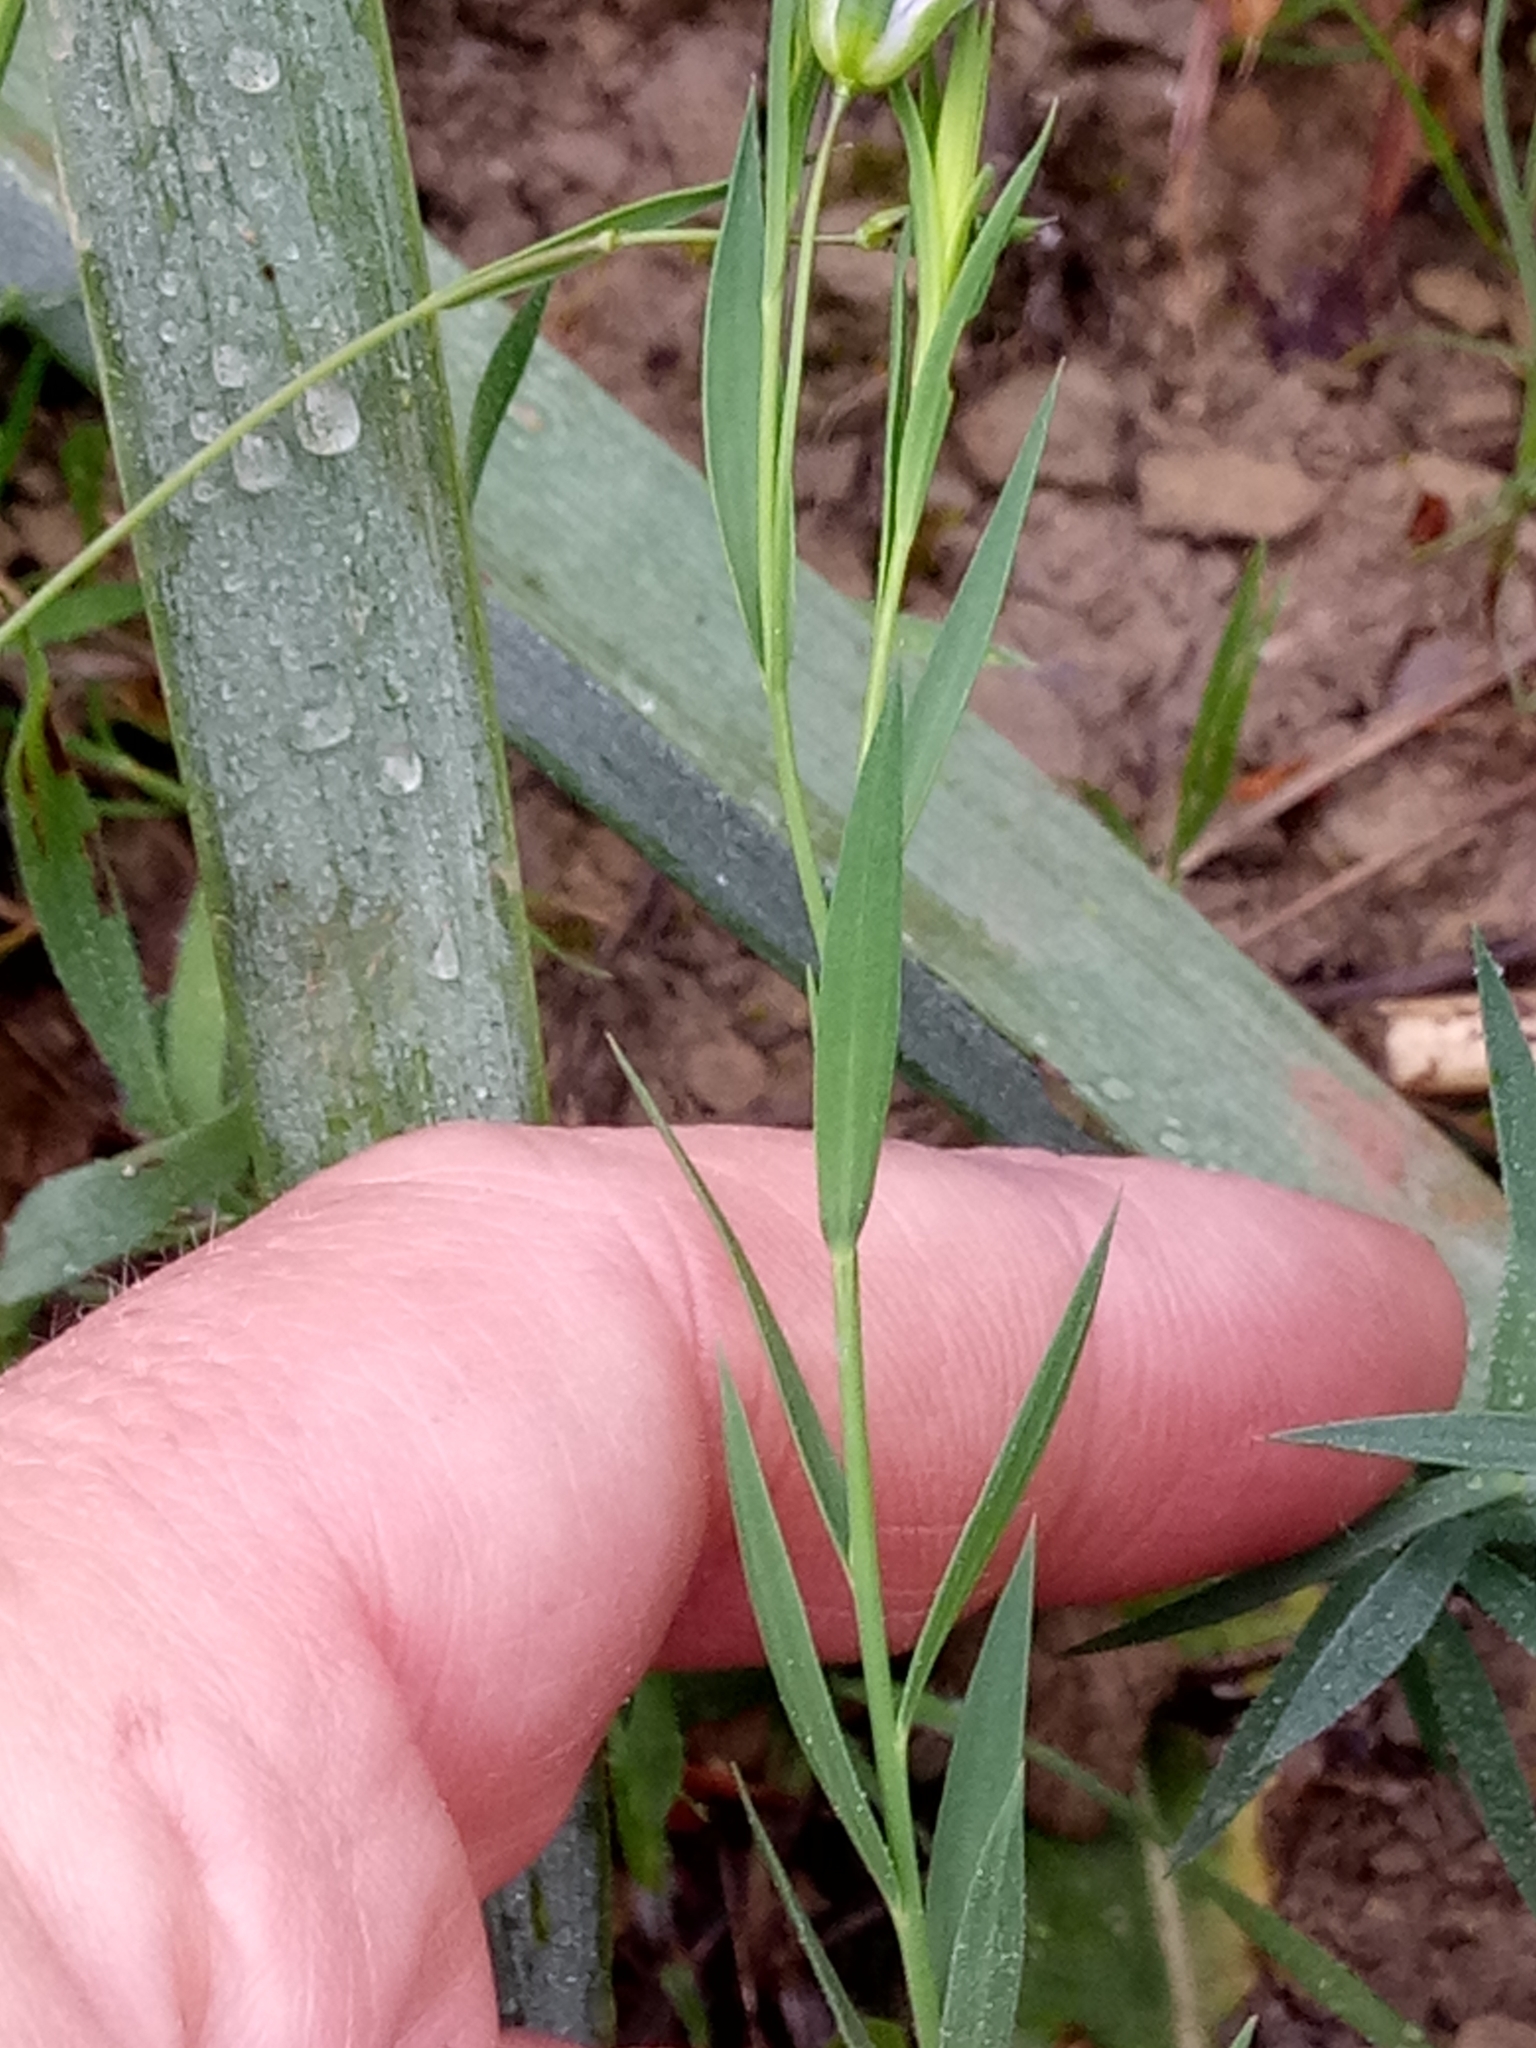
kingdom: Plantae
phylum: Tracheophyta
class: Magnoliopsida
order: Malpighiales
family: Linaceae
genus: Linum
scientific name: Linum bienne
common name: Pale flax
